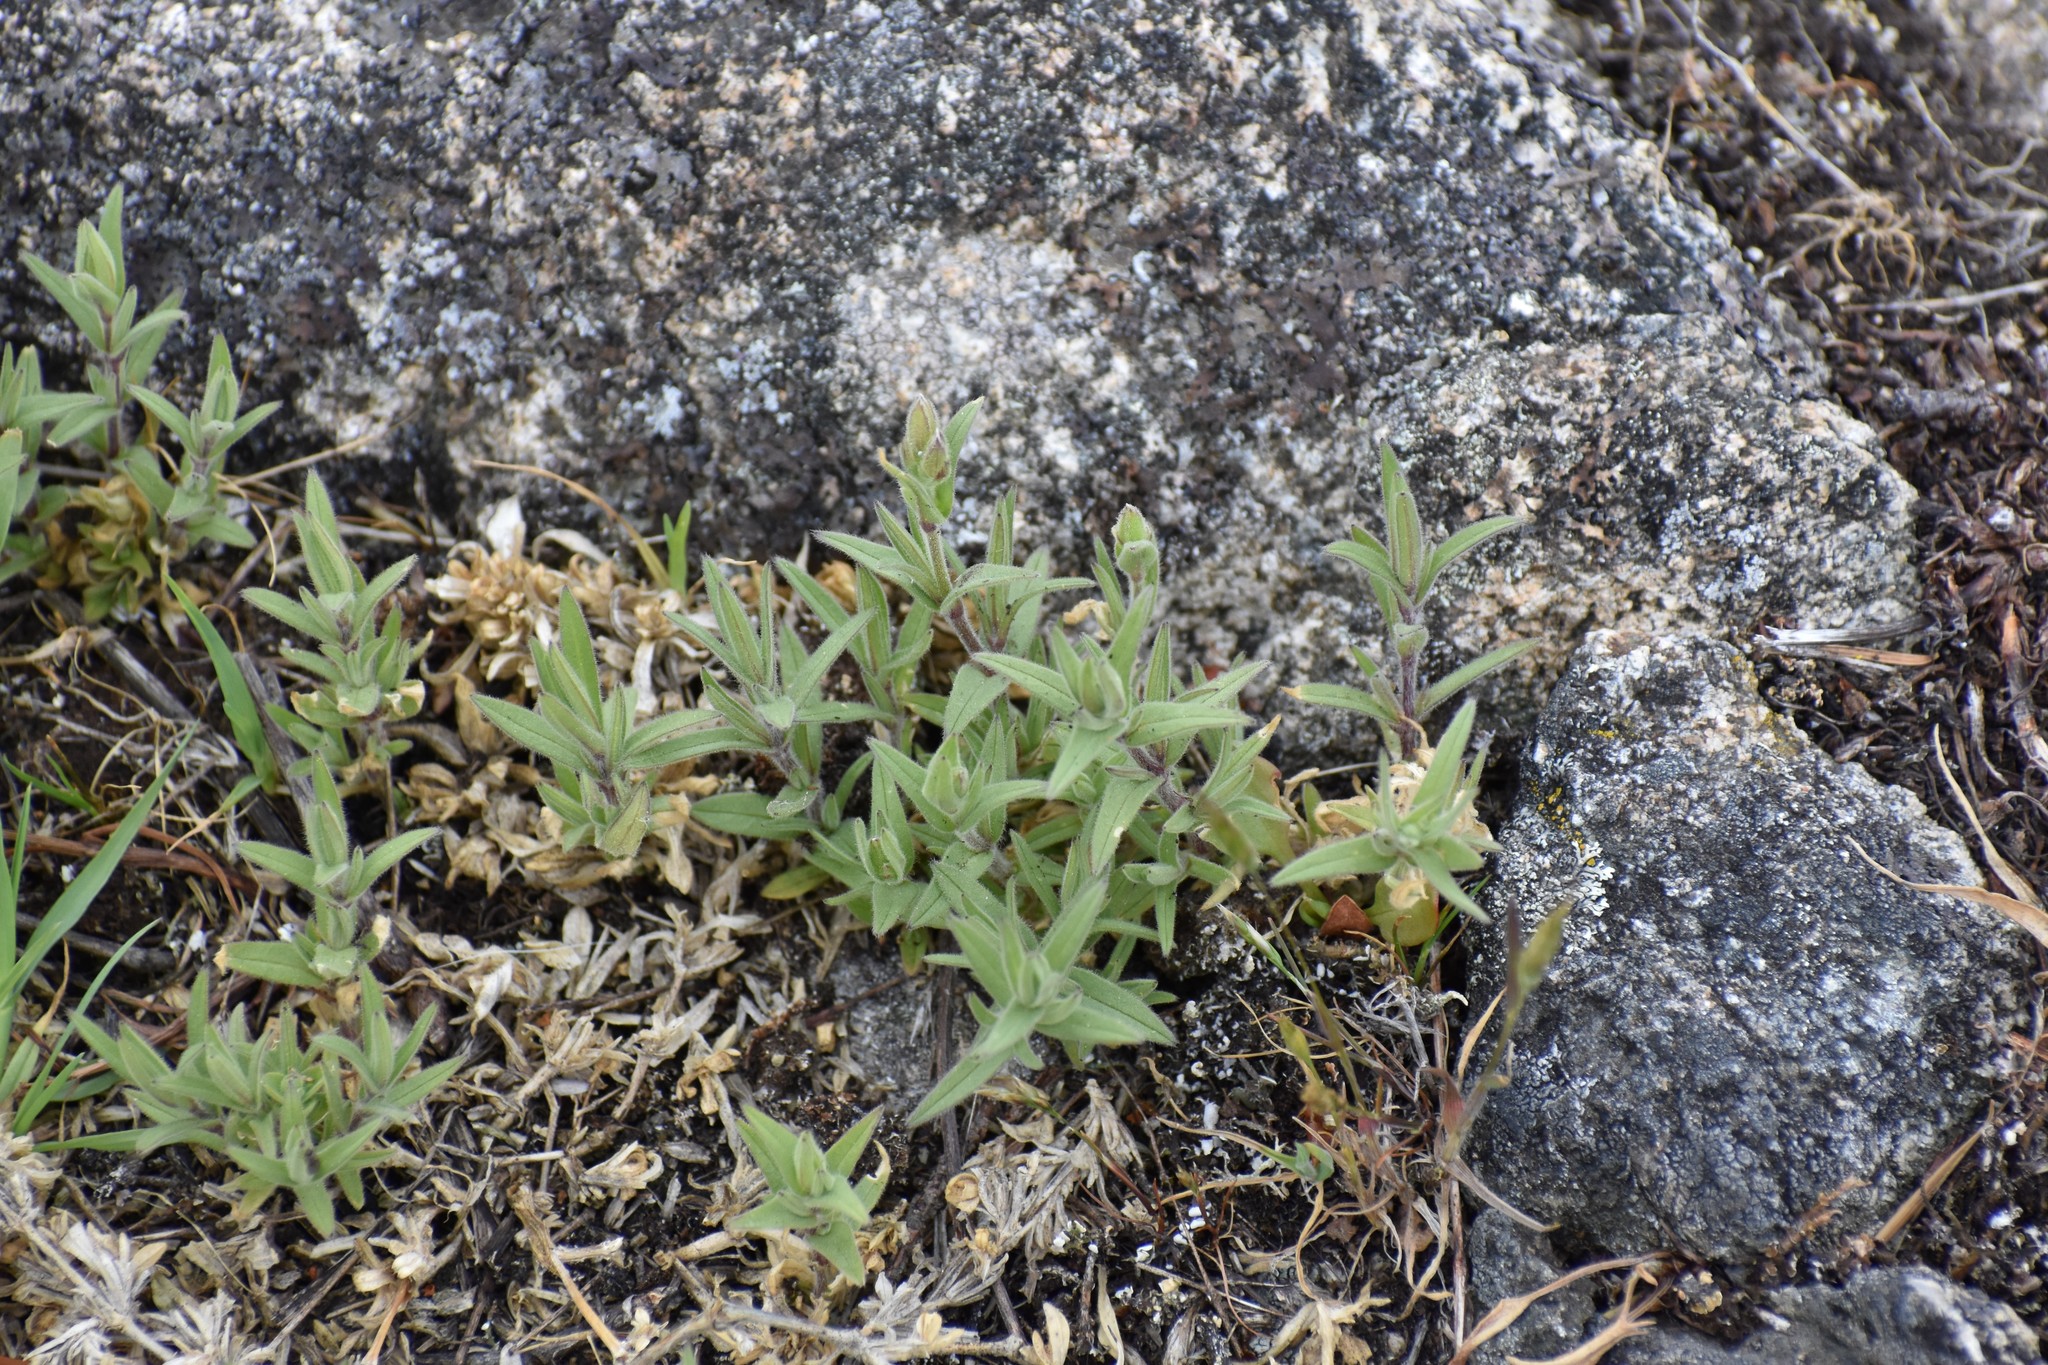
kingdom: Plantae
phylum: Tracheophyta
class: Magnoliopsida
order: Caryophyllales
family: Caryophyllaceae
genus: Cerastium
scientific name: Cerastium arvense
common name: Field mouse-ear
